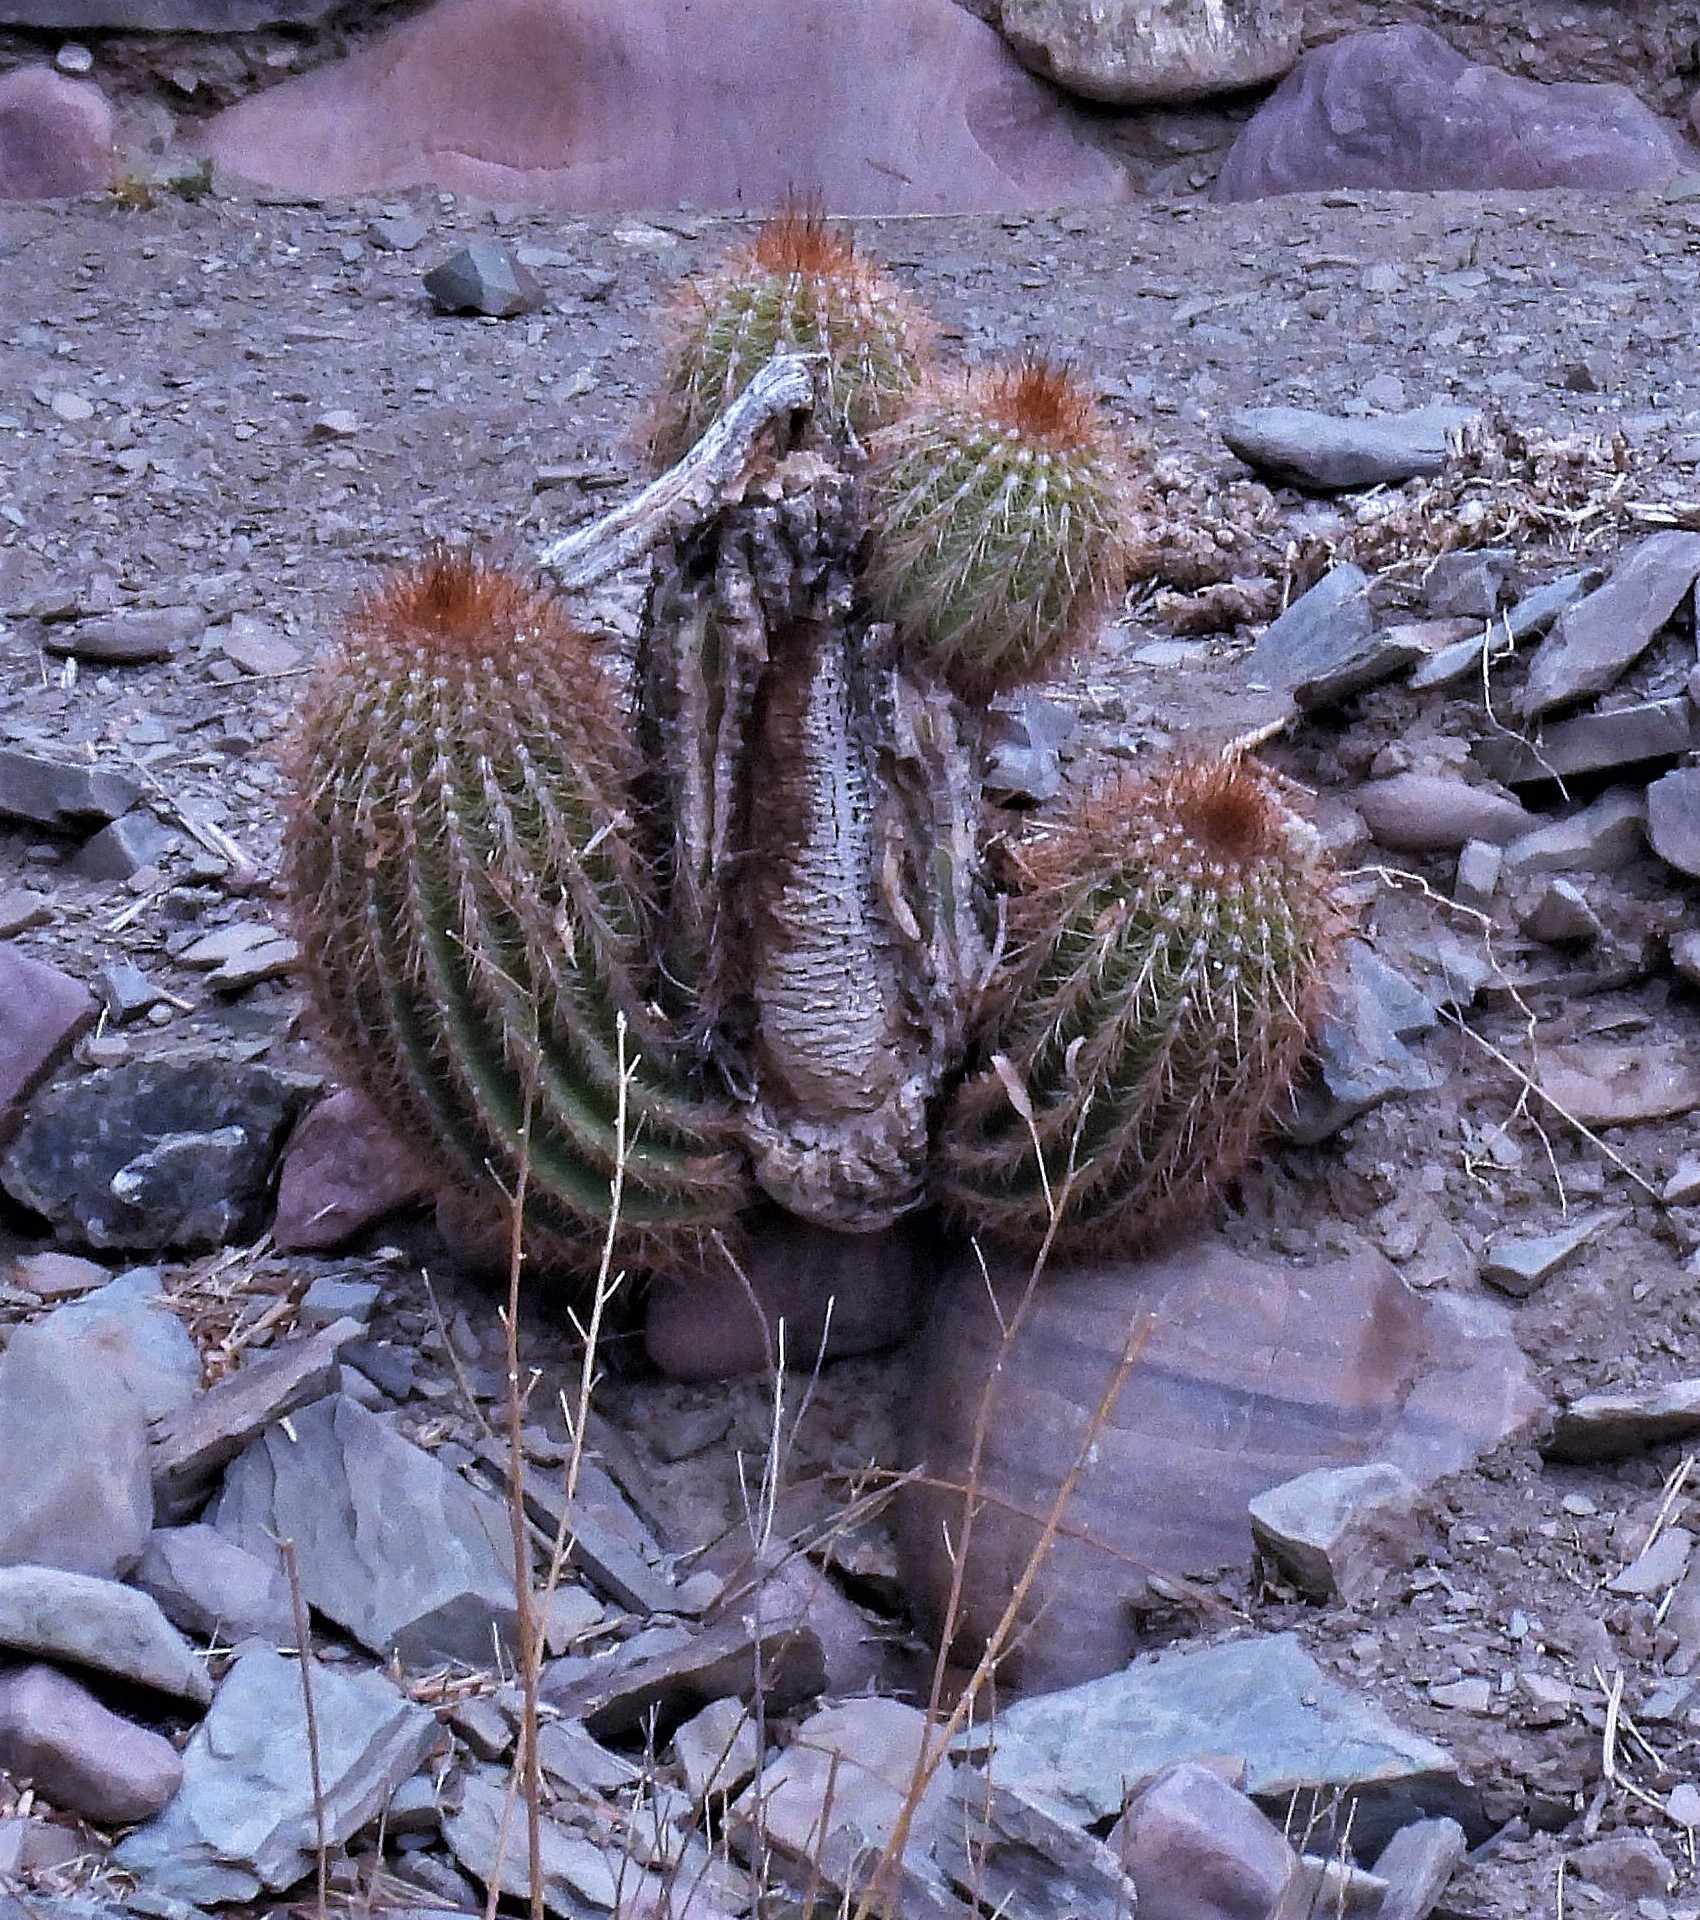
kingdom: Plantae
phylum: Tracheophyta
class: Magnoliopsida
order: Caryophyllales
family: Cactaceae
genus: Soehrensia
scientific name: Soehrensia tarijensis
